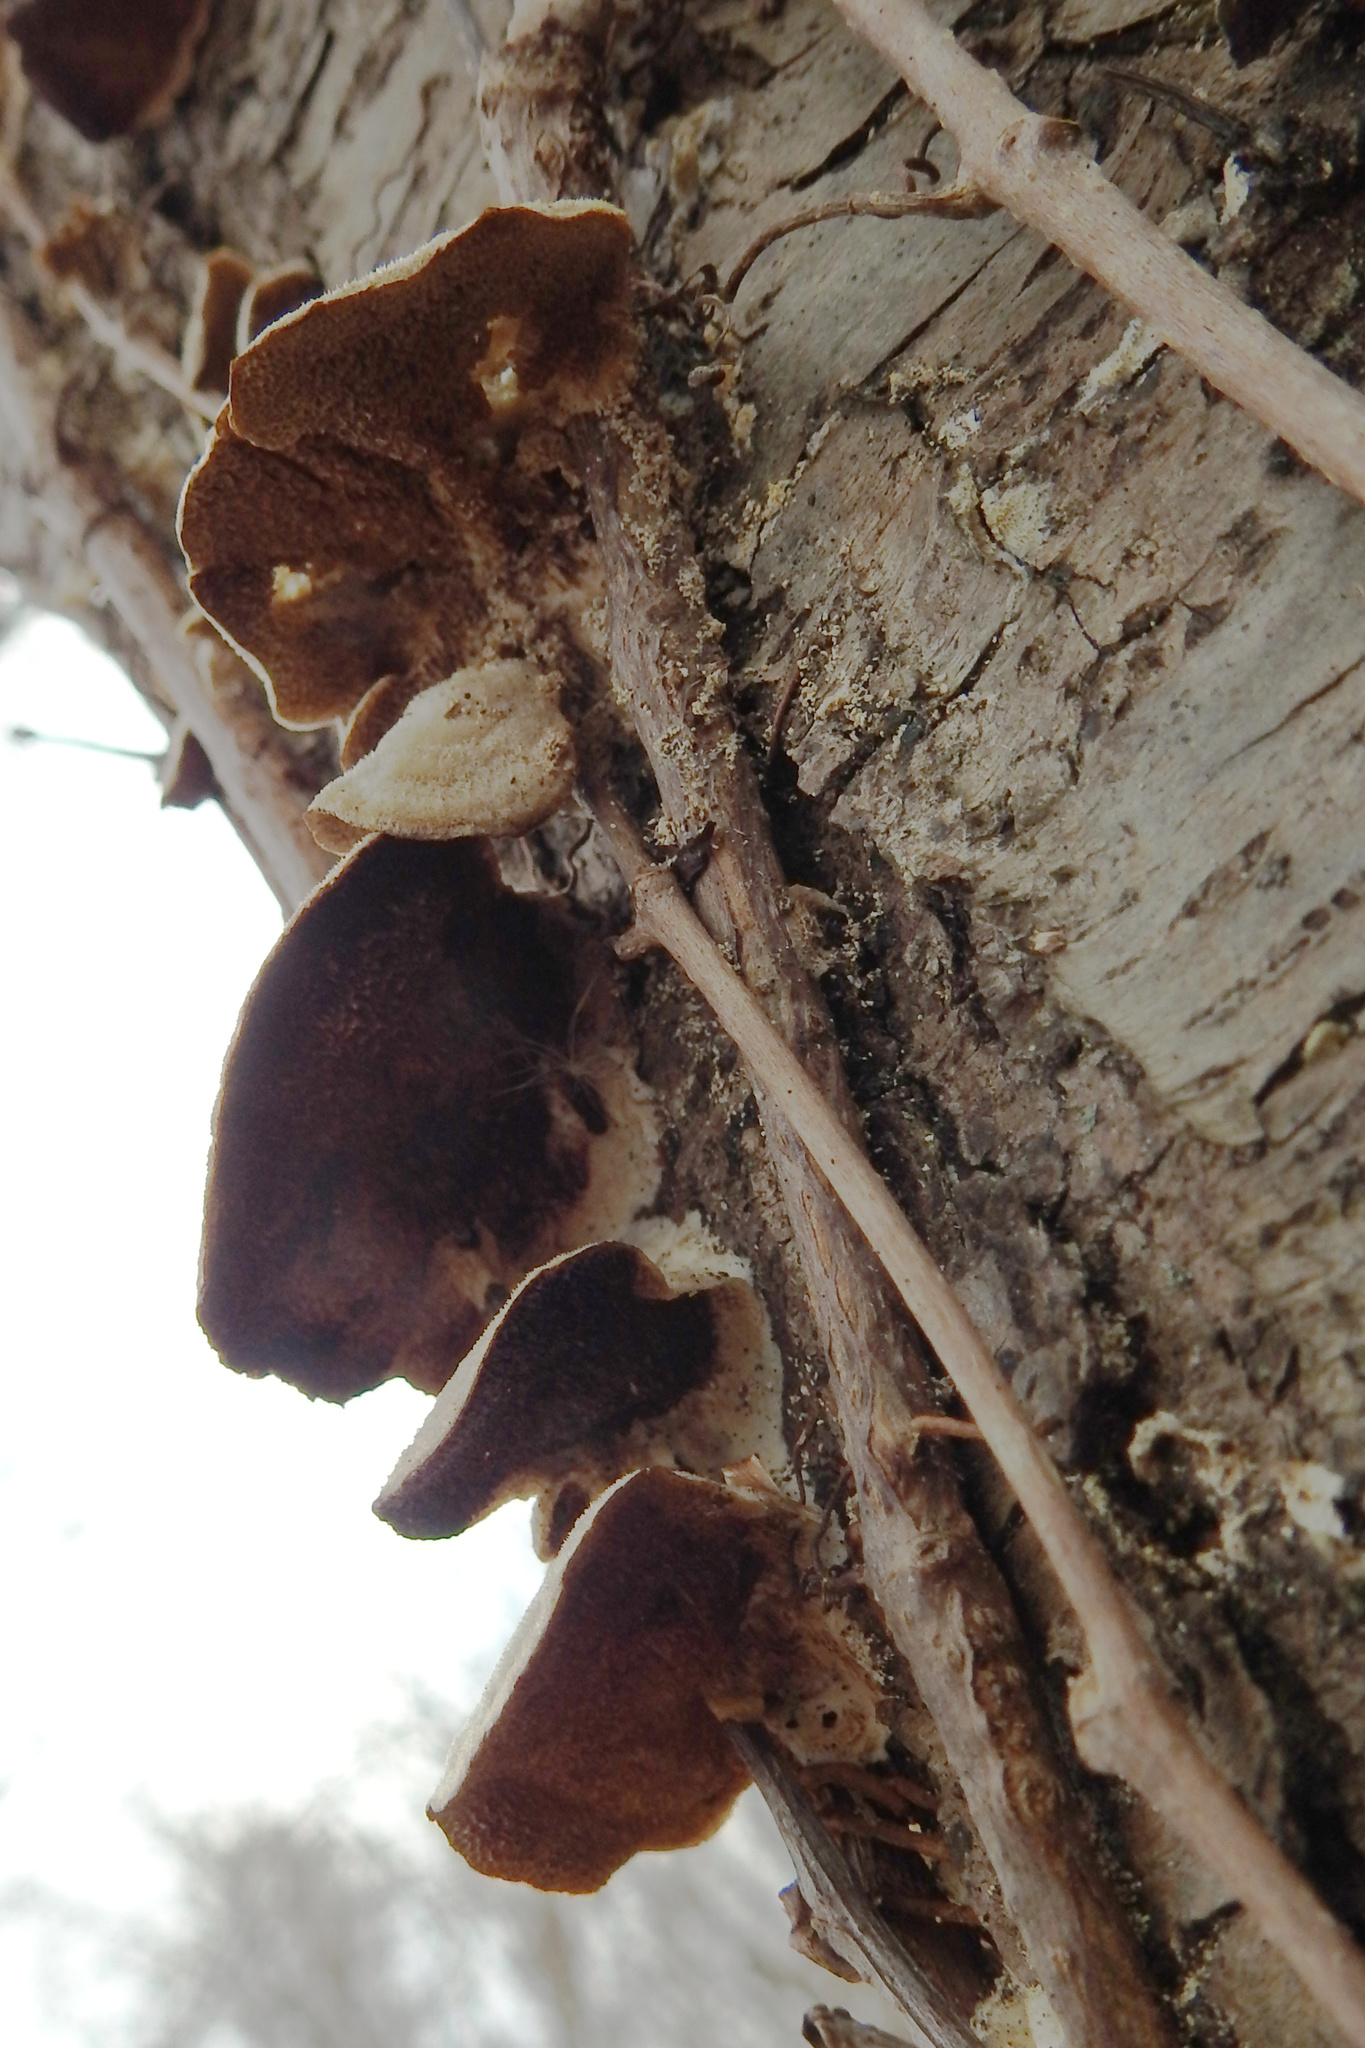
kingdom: Fungi
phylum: Basidiomycota
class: Agaricomycetes
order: Hymenochaetales
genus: Trichaptum
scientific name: Trichaptum biforme
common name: Violet-toothed polypore
